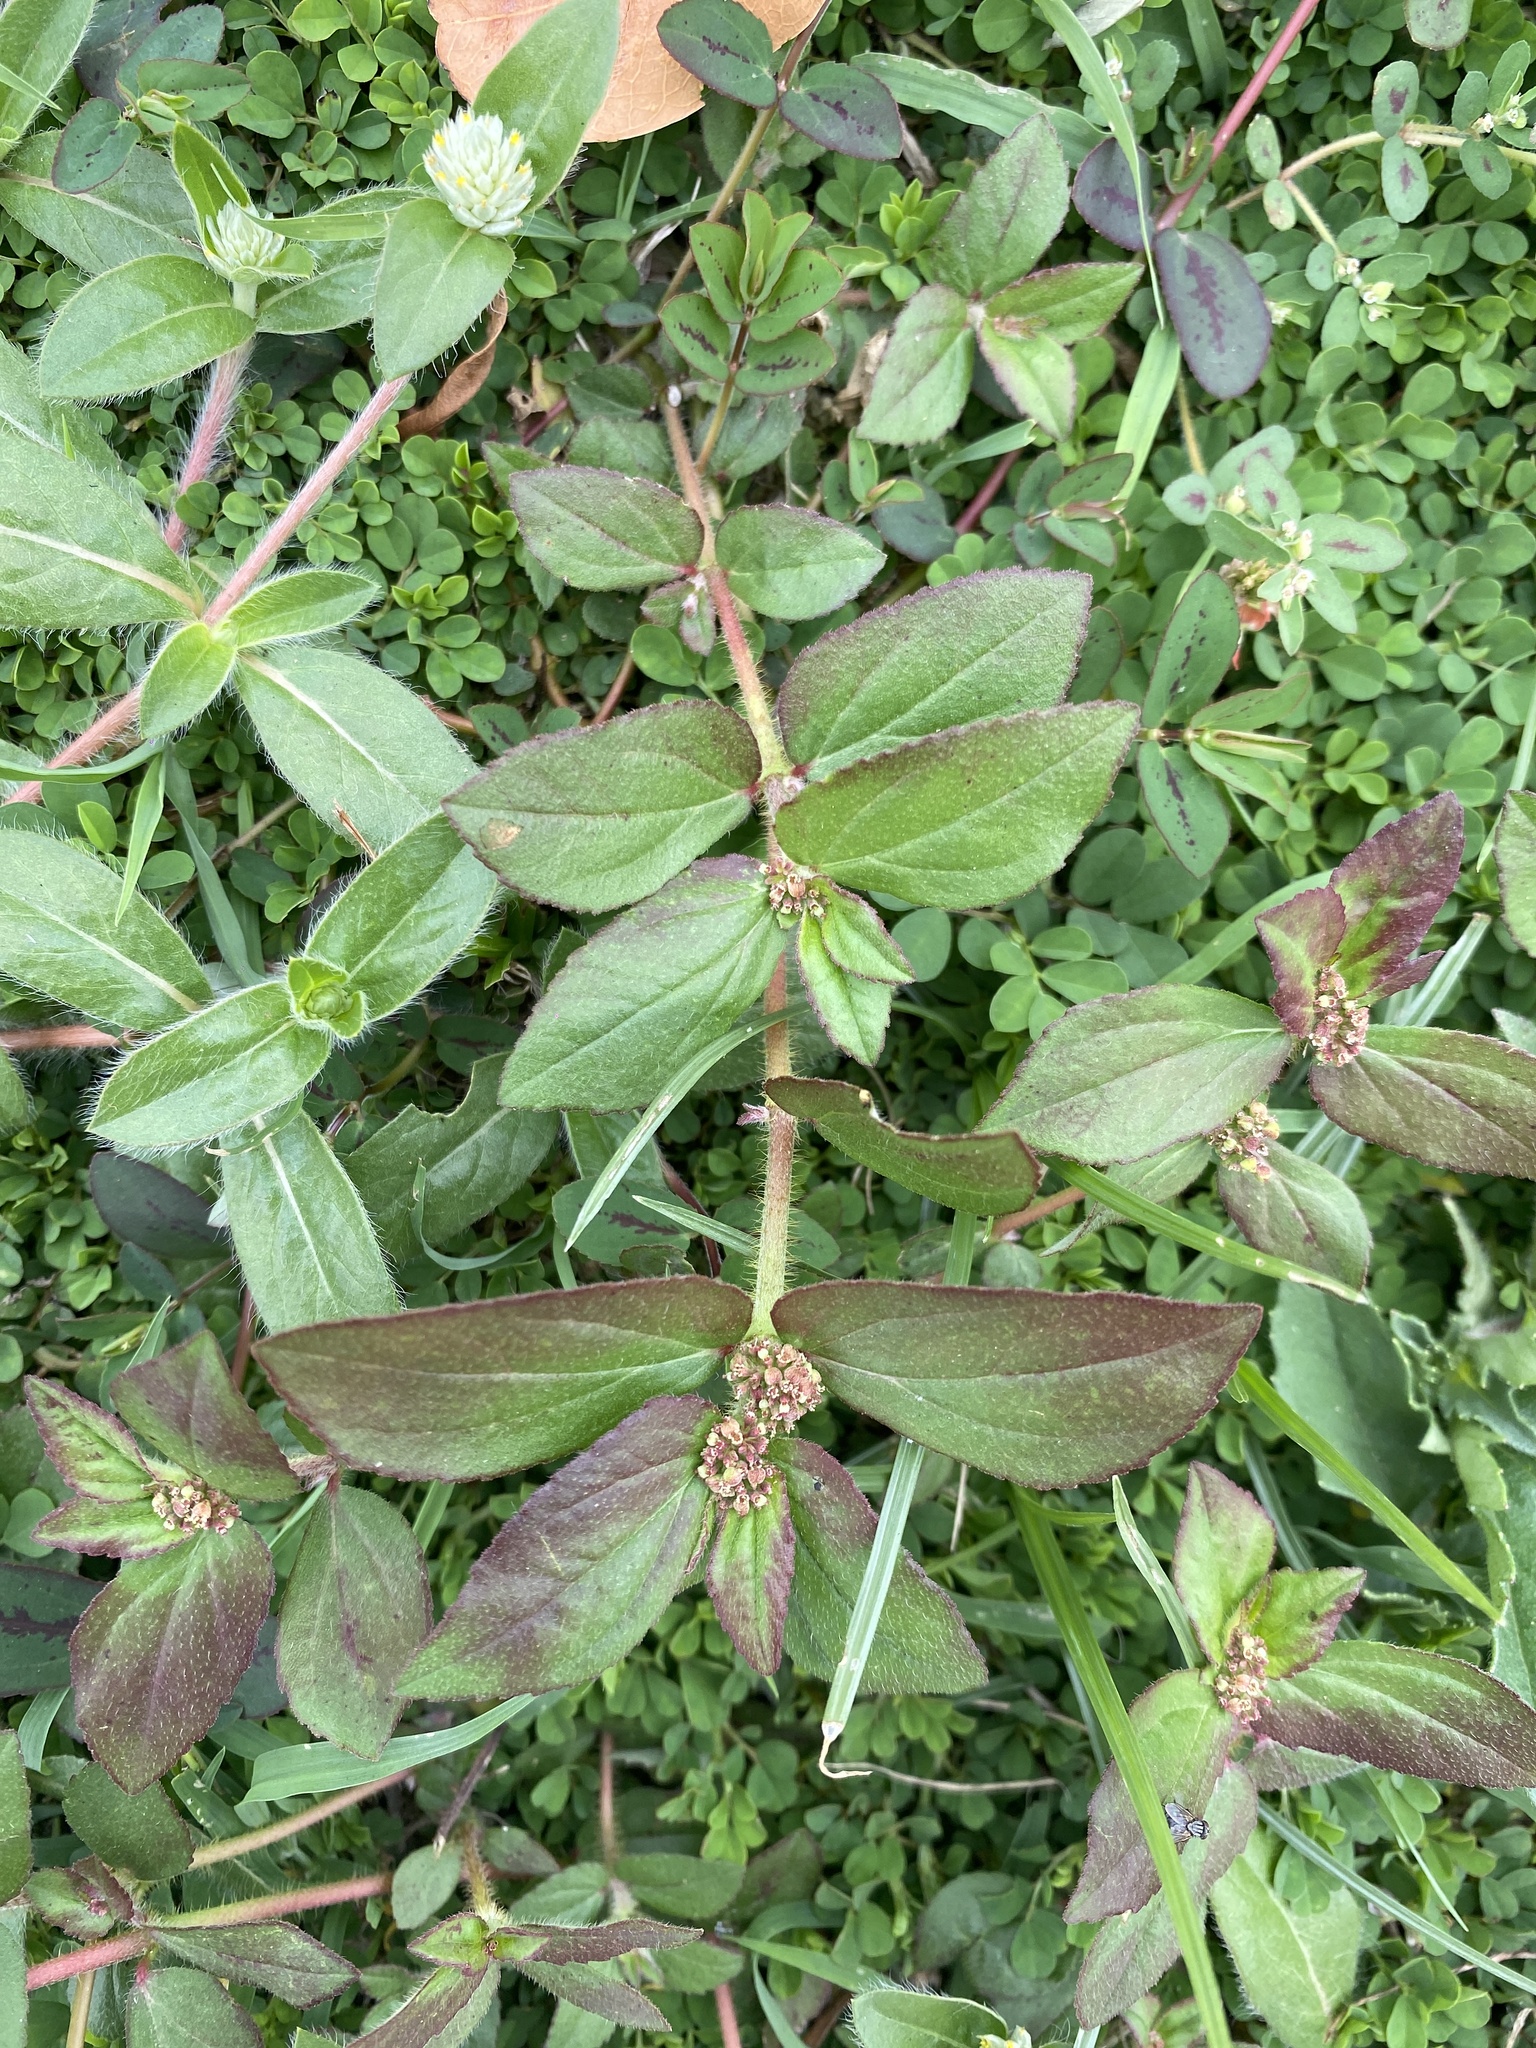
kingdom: Plantae
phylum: Tracheophyta
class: Magnoliopsida
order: Malpighiales
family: Euphorbiaceae
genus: Euphorbia
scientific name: Euphorbia hirta
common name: Pillpod sandmat
